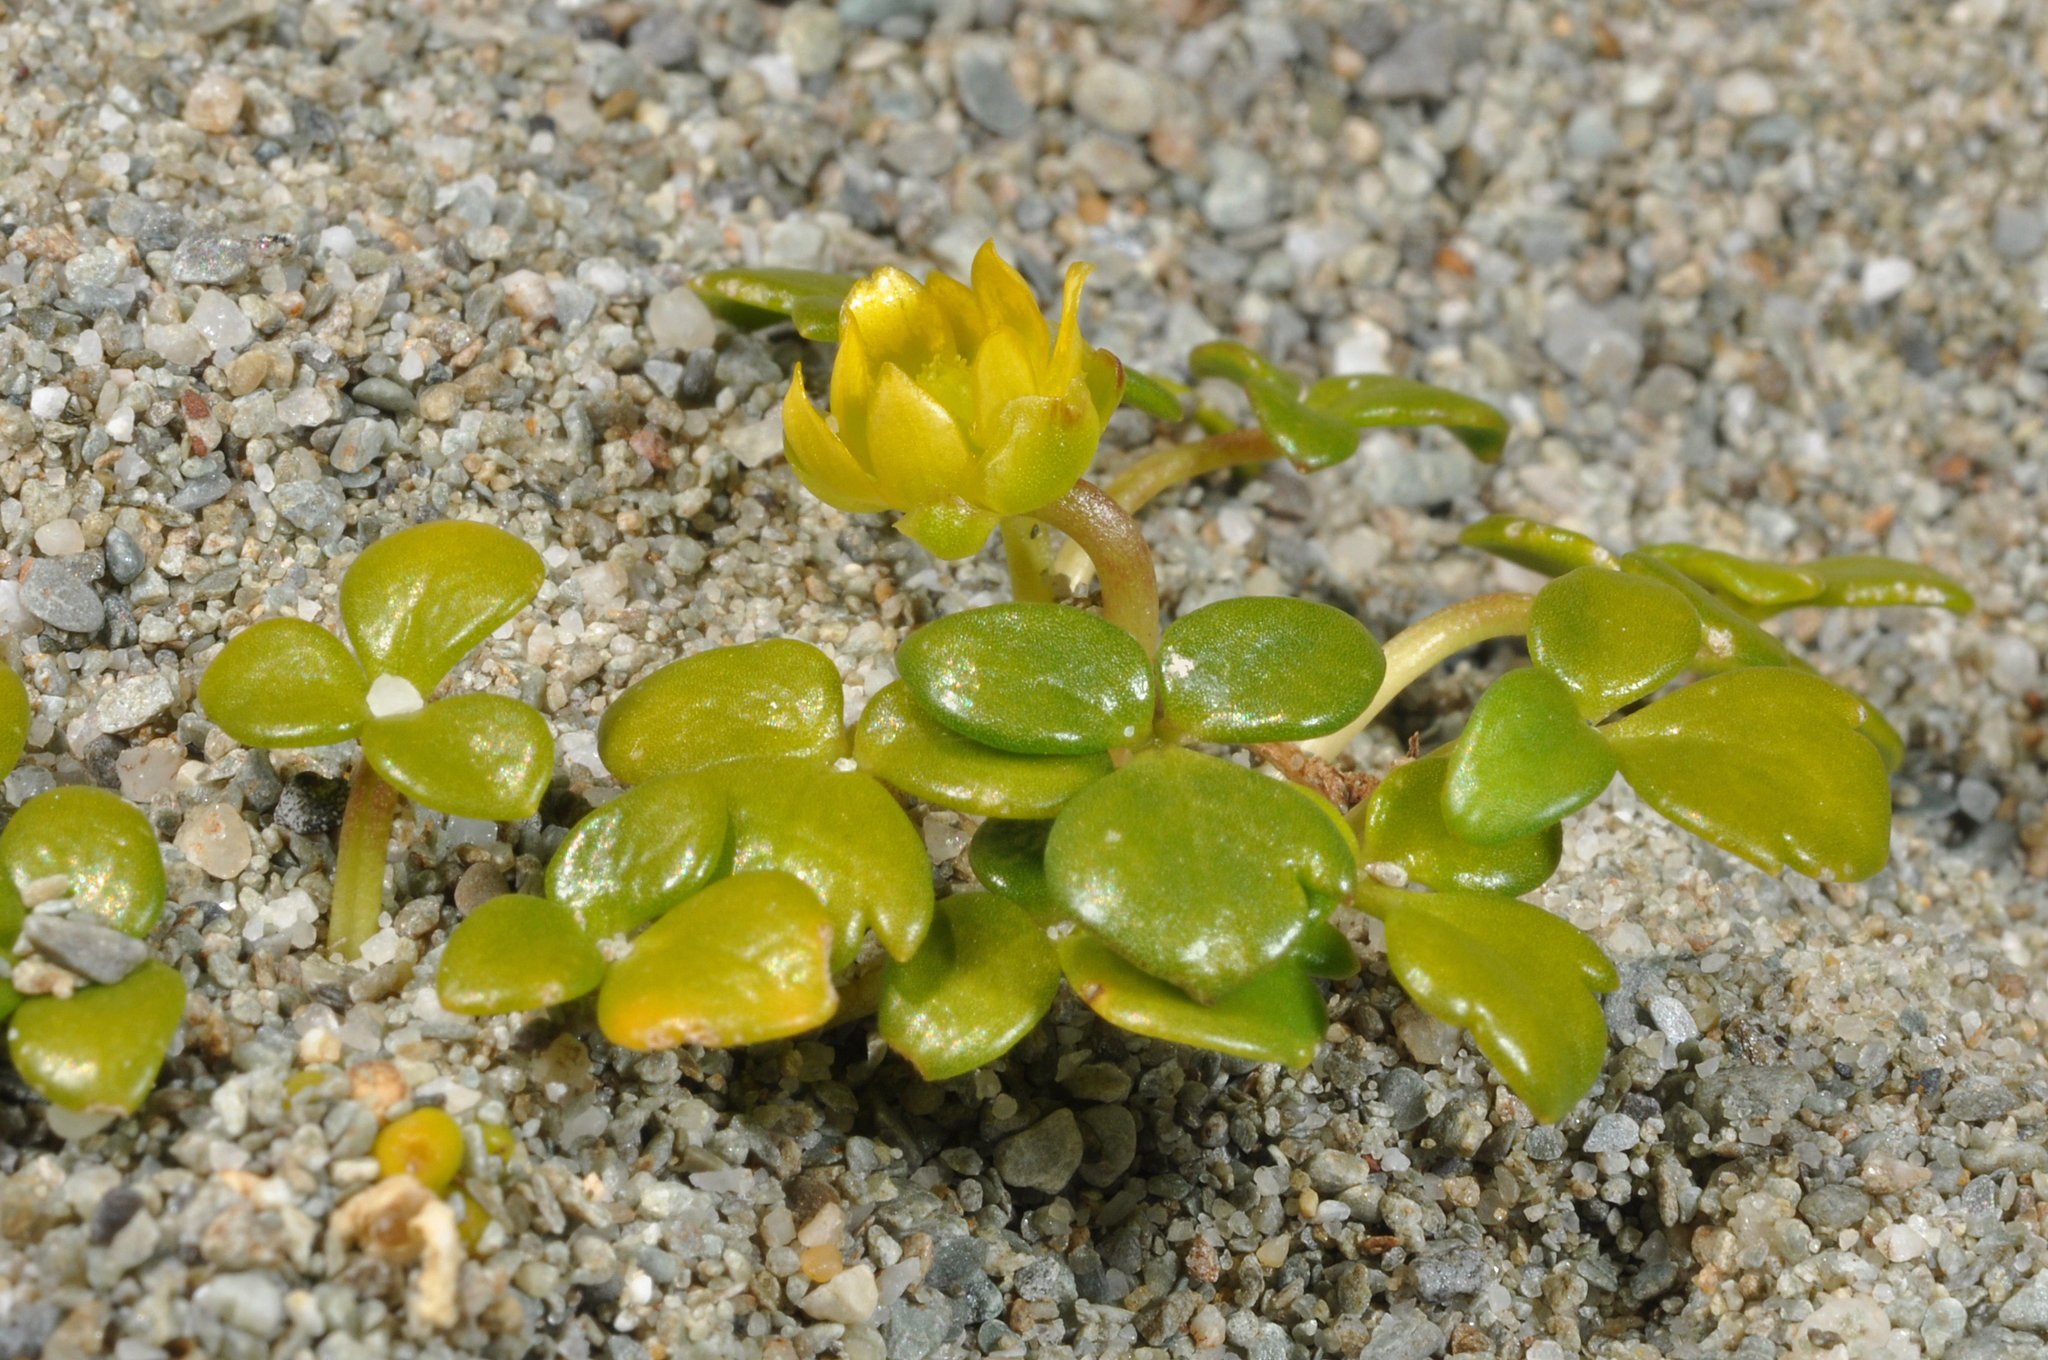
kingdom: Plantae
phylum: Tracheophyta
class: Magnoliopsida
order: Ranunculales
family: Ranunculaceae
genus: Ranunculus
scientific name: Ranunculus acaulis
